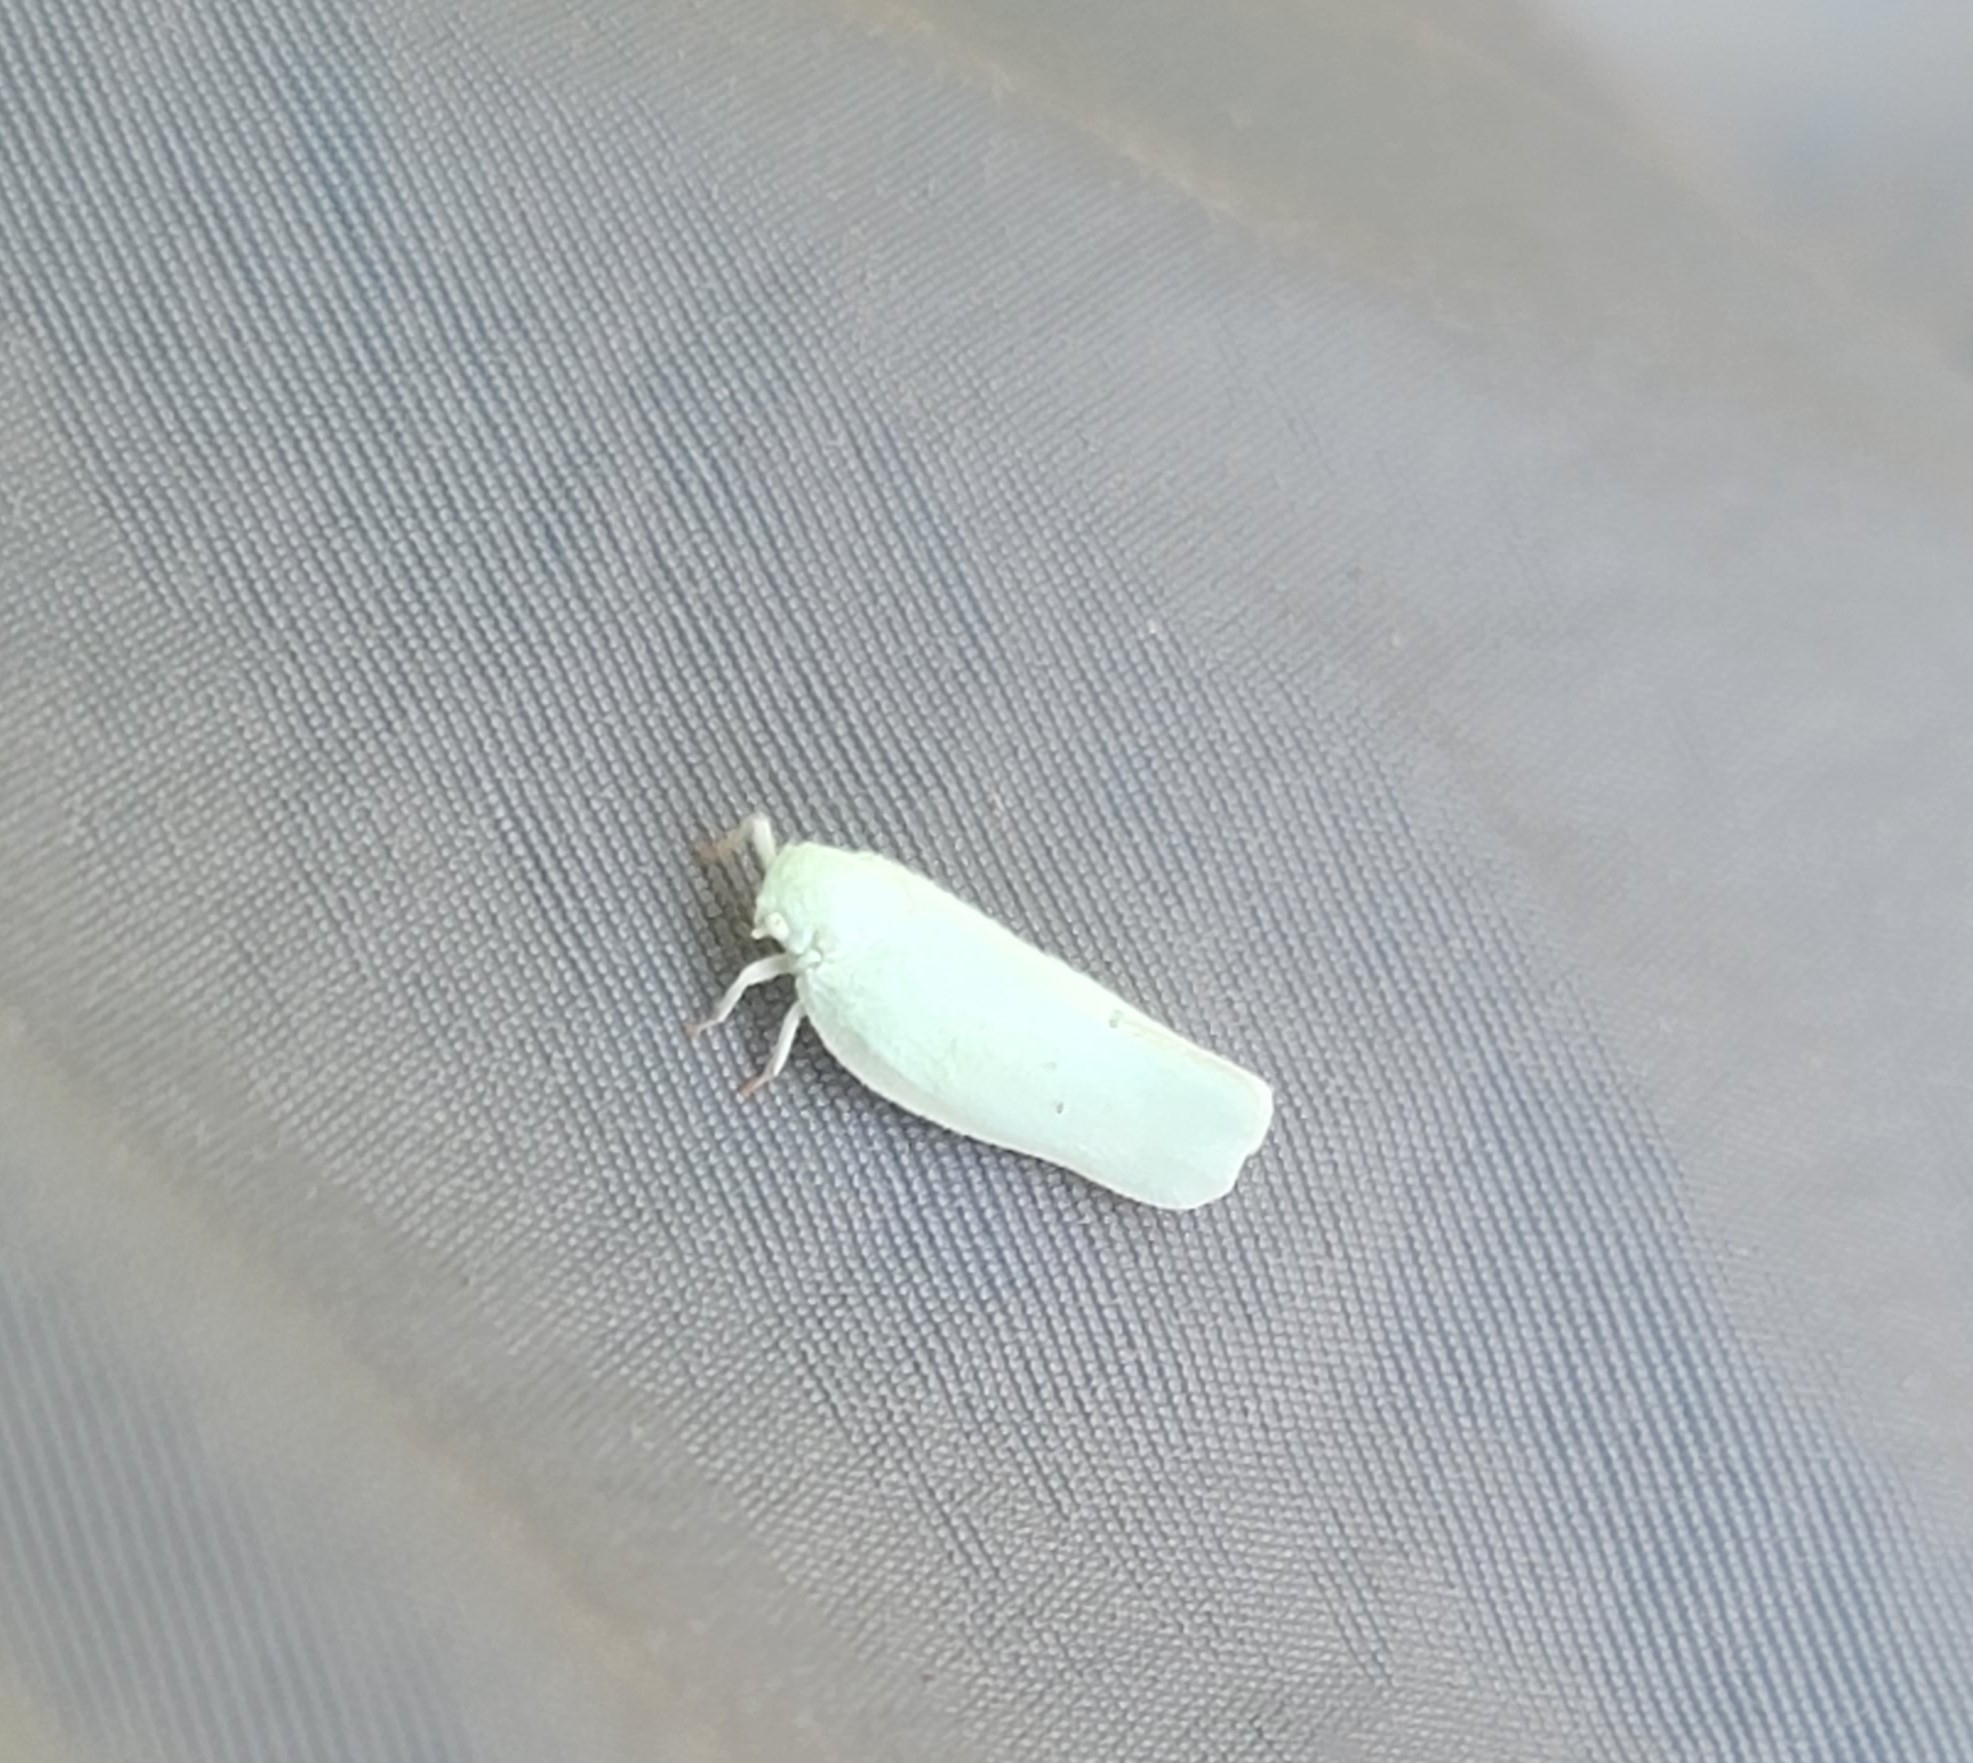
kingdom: Animalia
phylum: Arthropoda
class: Insecta
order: Hemiptera
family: Flatidae
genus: Flatormenis
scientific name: Flatormenis proxima
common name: Northern flatid planthopper
